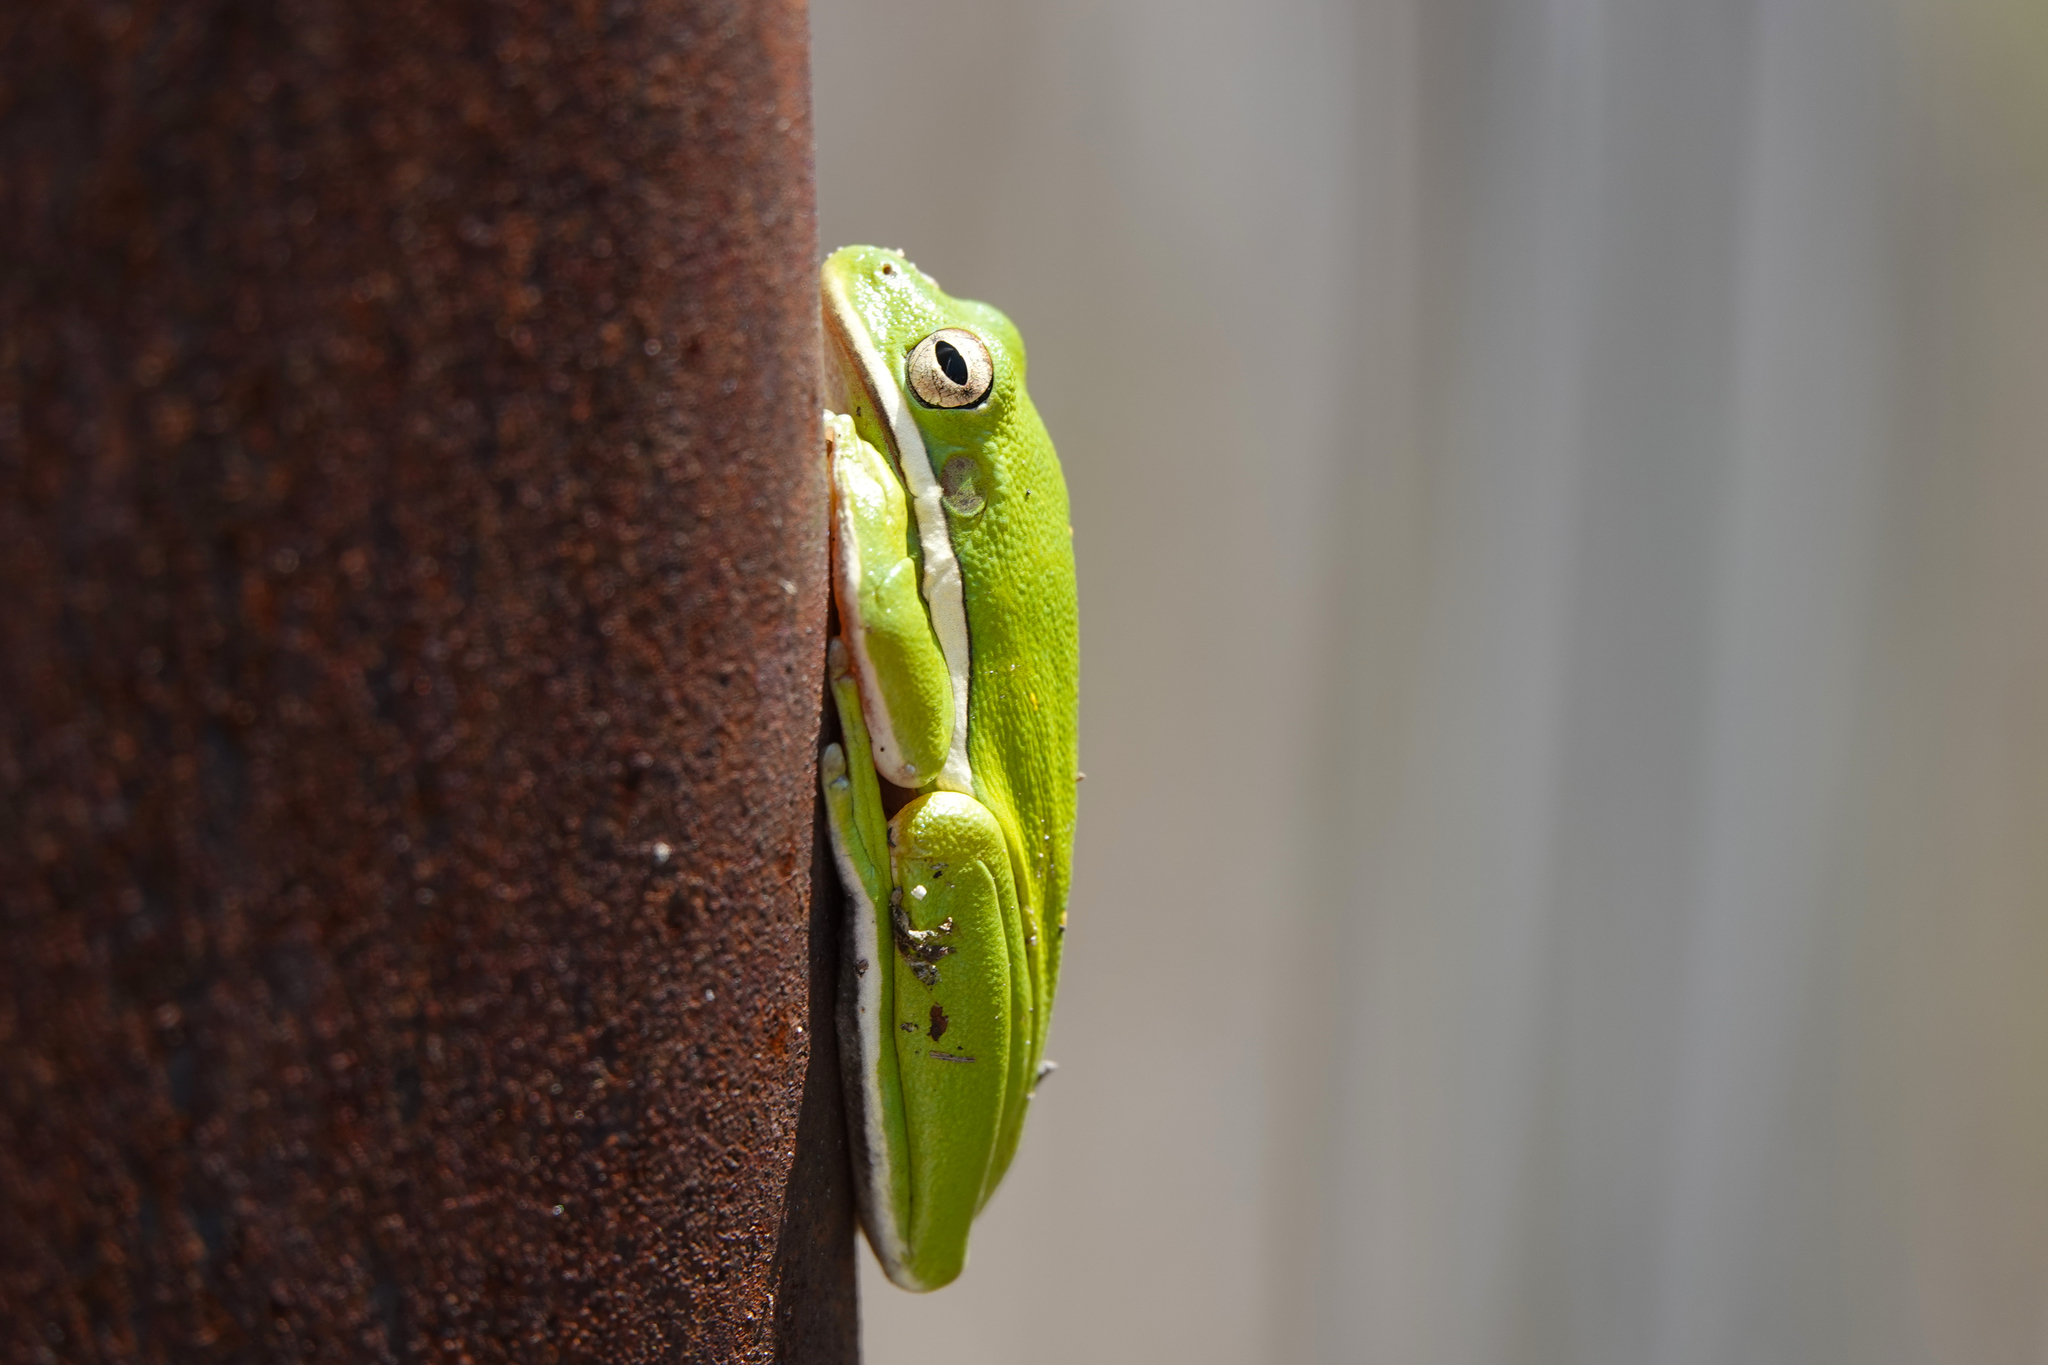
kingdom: Animalia
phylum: Chordata
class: Amphibia
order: Anura
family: Hylidae
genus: Dryophytes
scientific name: Dryophytes cinereus
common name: Green treefrog
